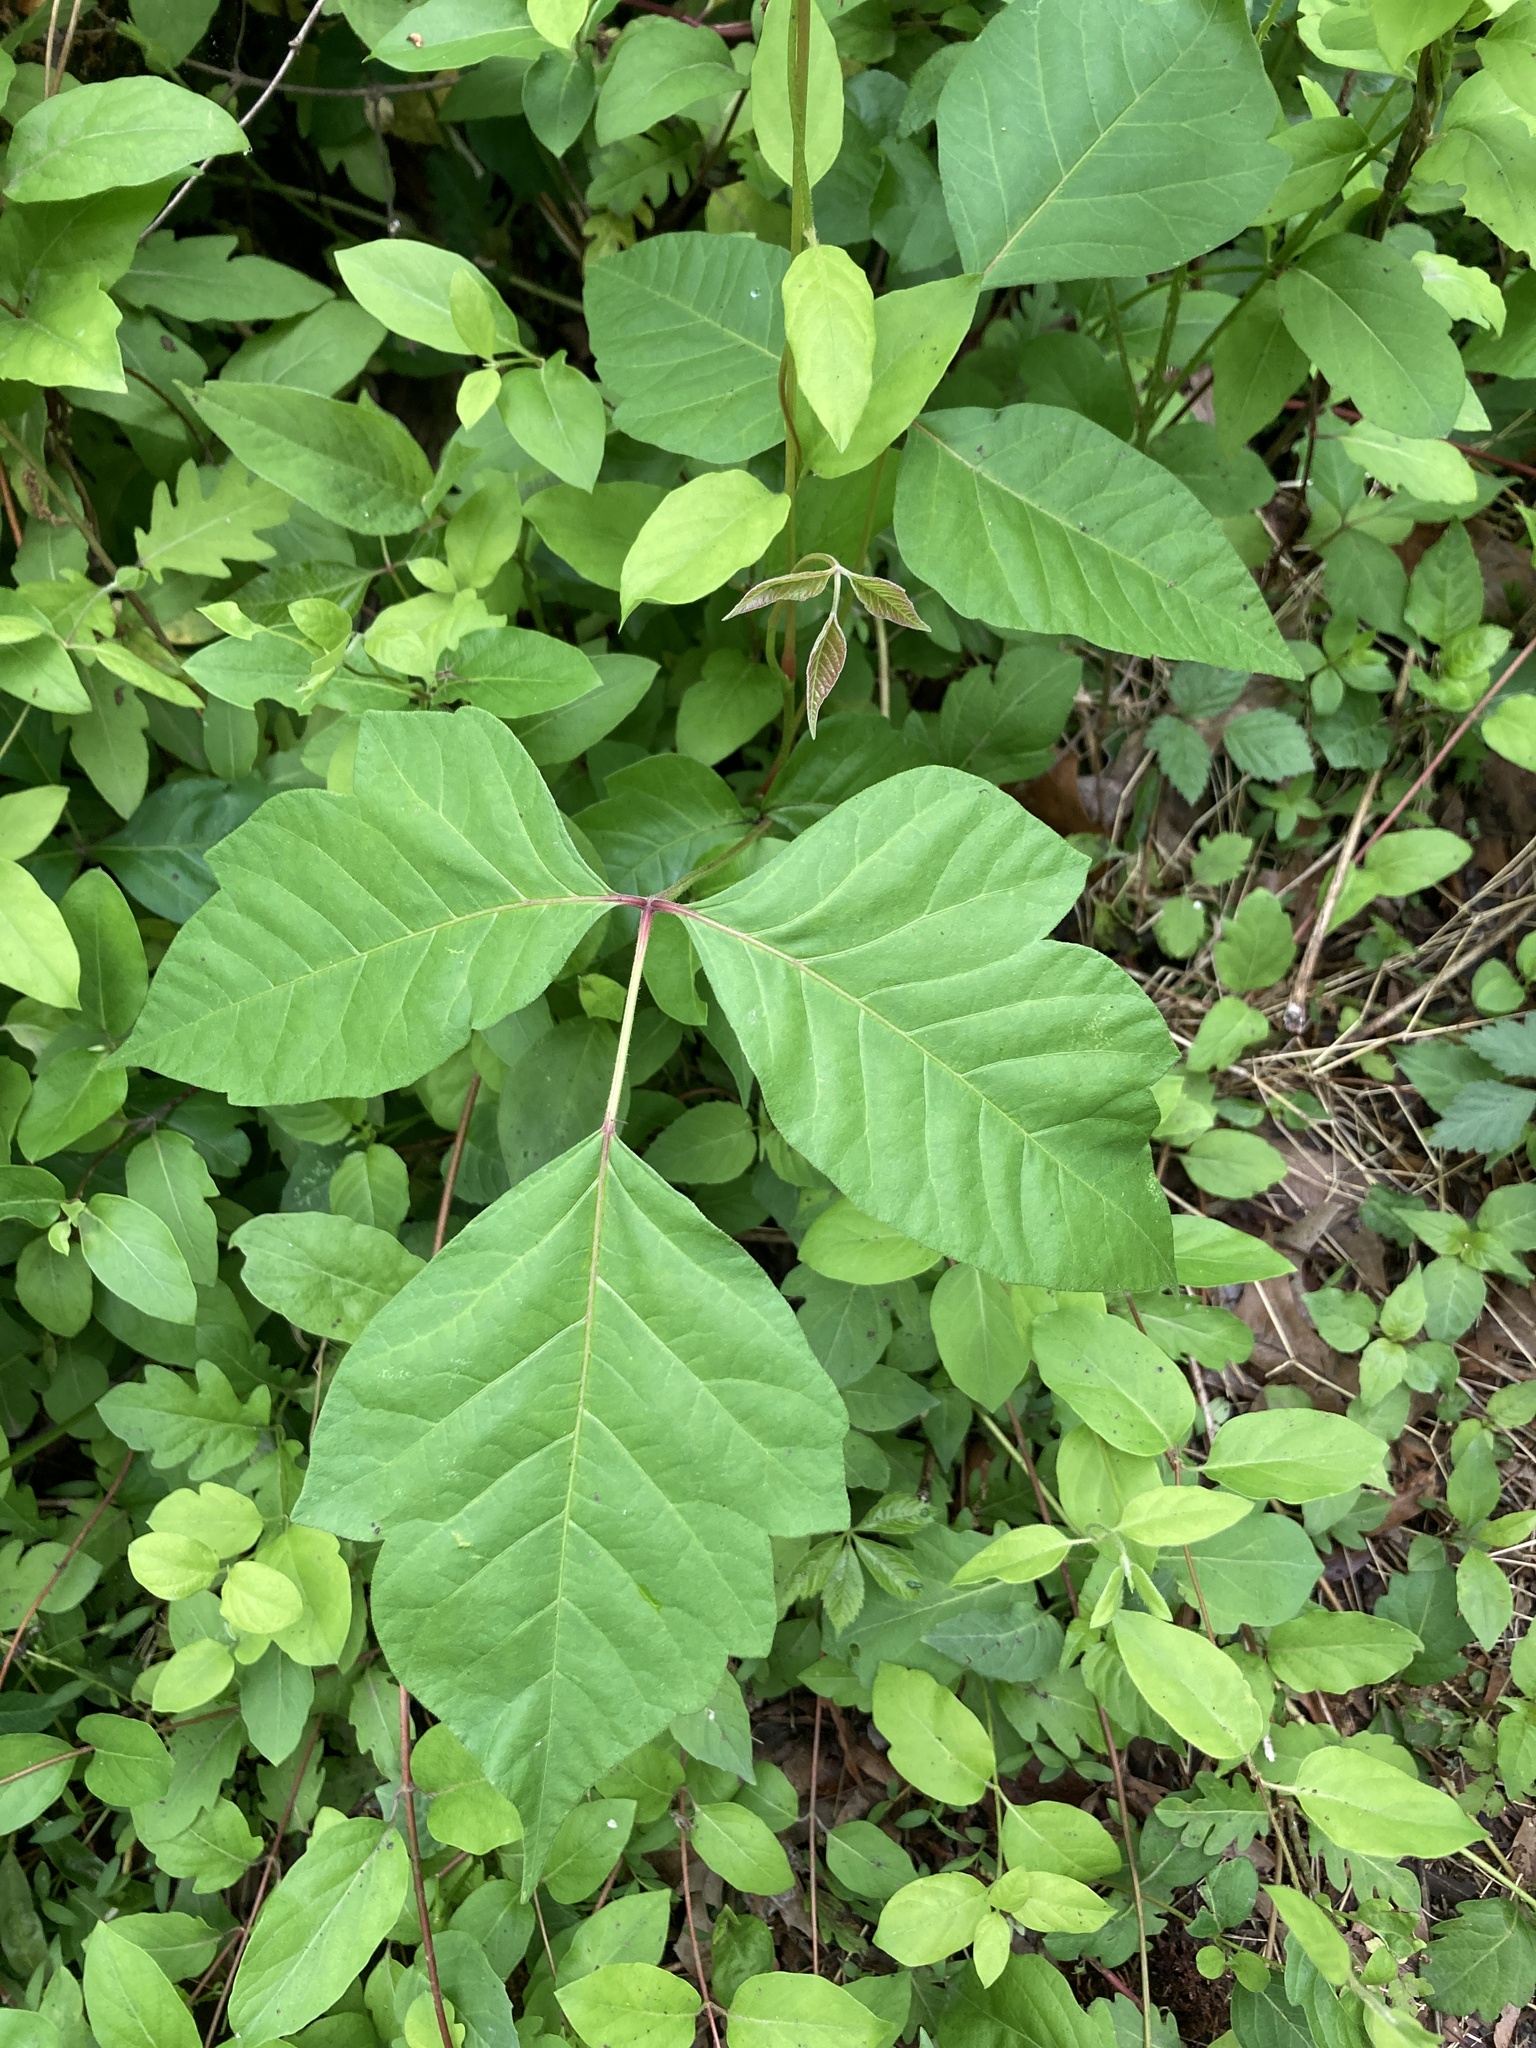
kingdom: Plantae
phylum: Tracheophyta
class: Magnoliopsida
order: Sapindales
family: Anacardiaceae
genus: Toxicodendron
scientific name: Toxicodendron radicans
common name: Poison ivy
